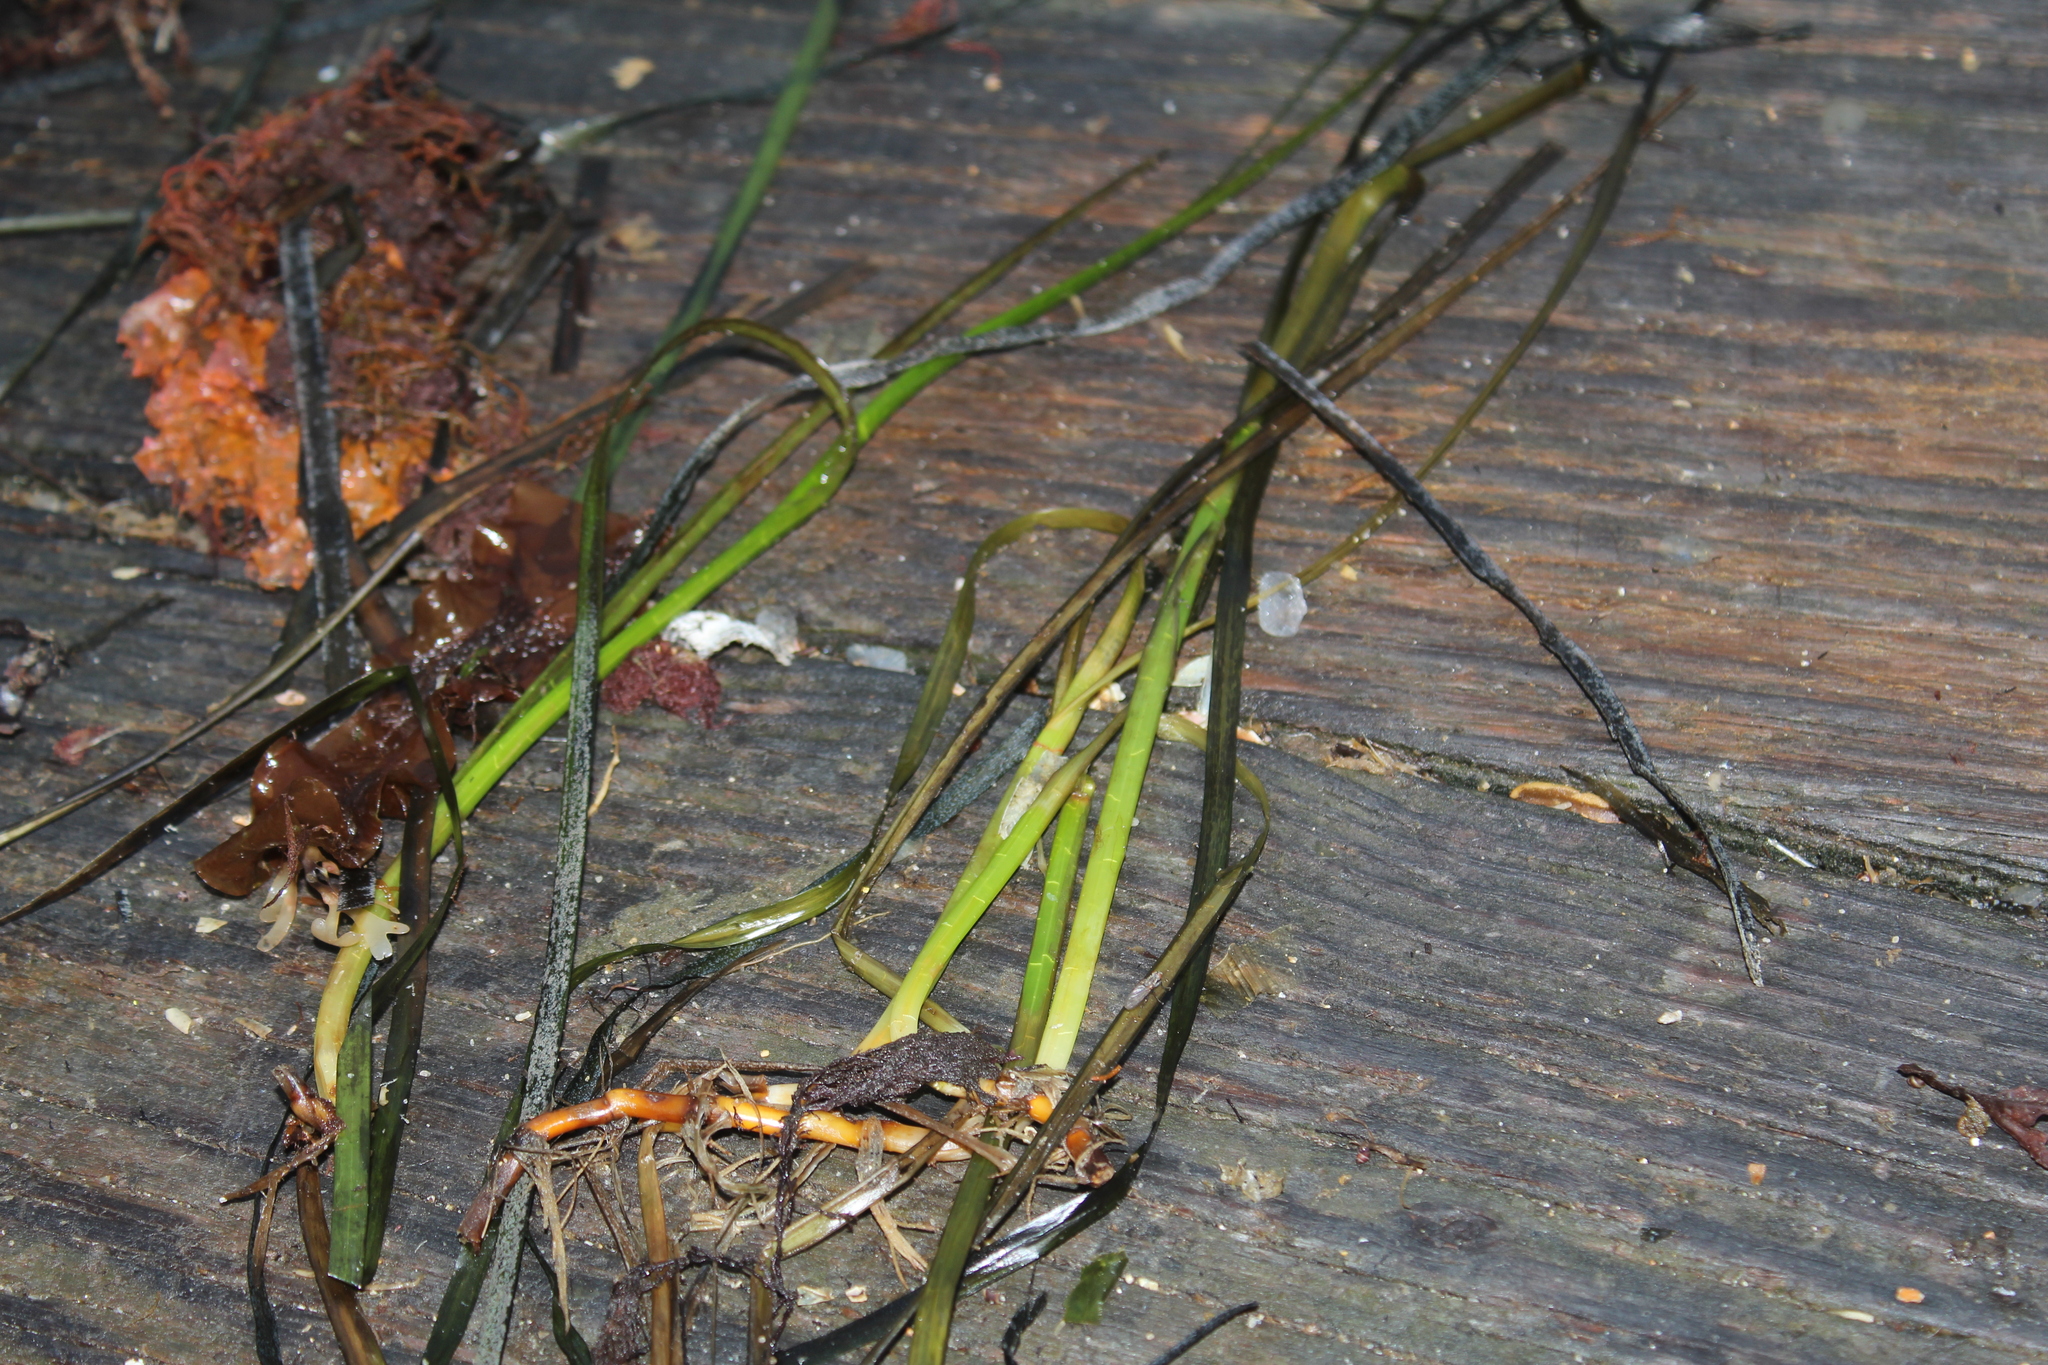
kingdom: Plantae
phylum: Tracheophyta
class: Liliopsida
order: Alismatales
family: Zosteraceae
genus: Zostera
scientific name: Zostera marina
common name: Eelgrass
